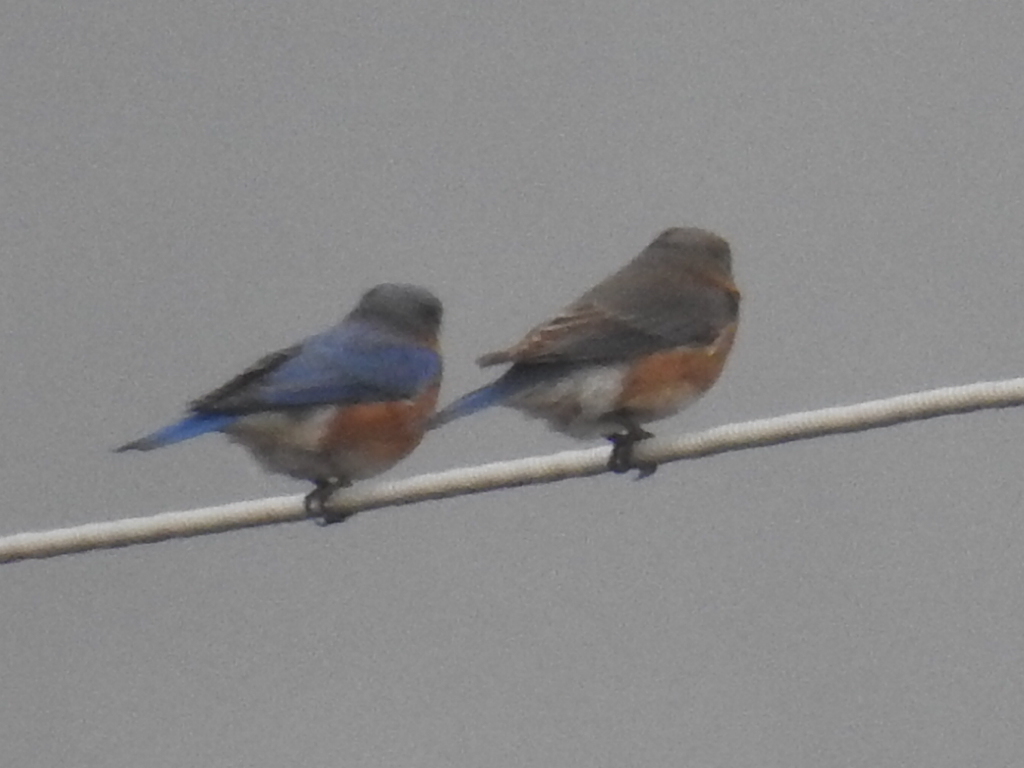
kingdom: Animalia
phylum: Chordata
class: Aves
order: Passeriformes
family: Turdidae
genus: Sialia
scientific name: Sialia sialis
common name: Eastern bluebird
